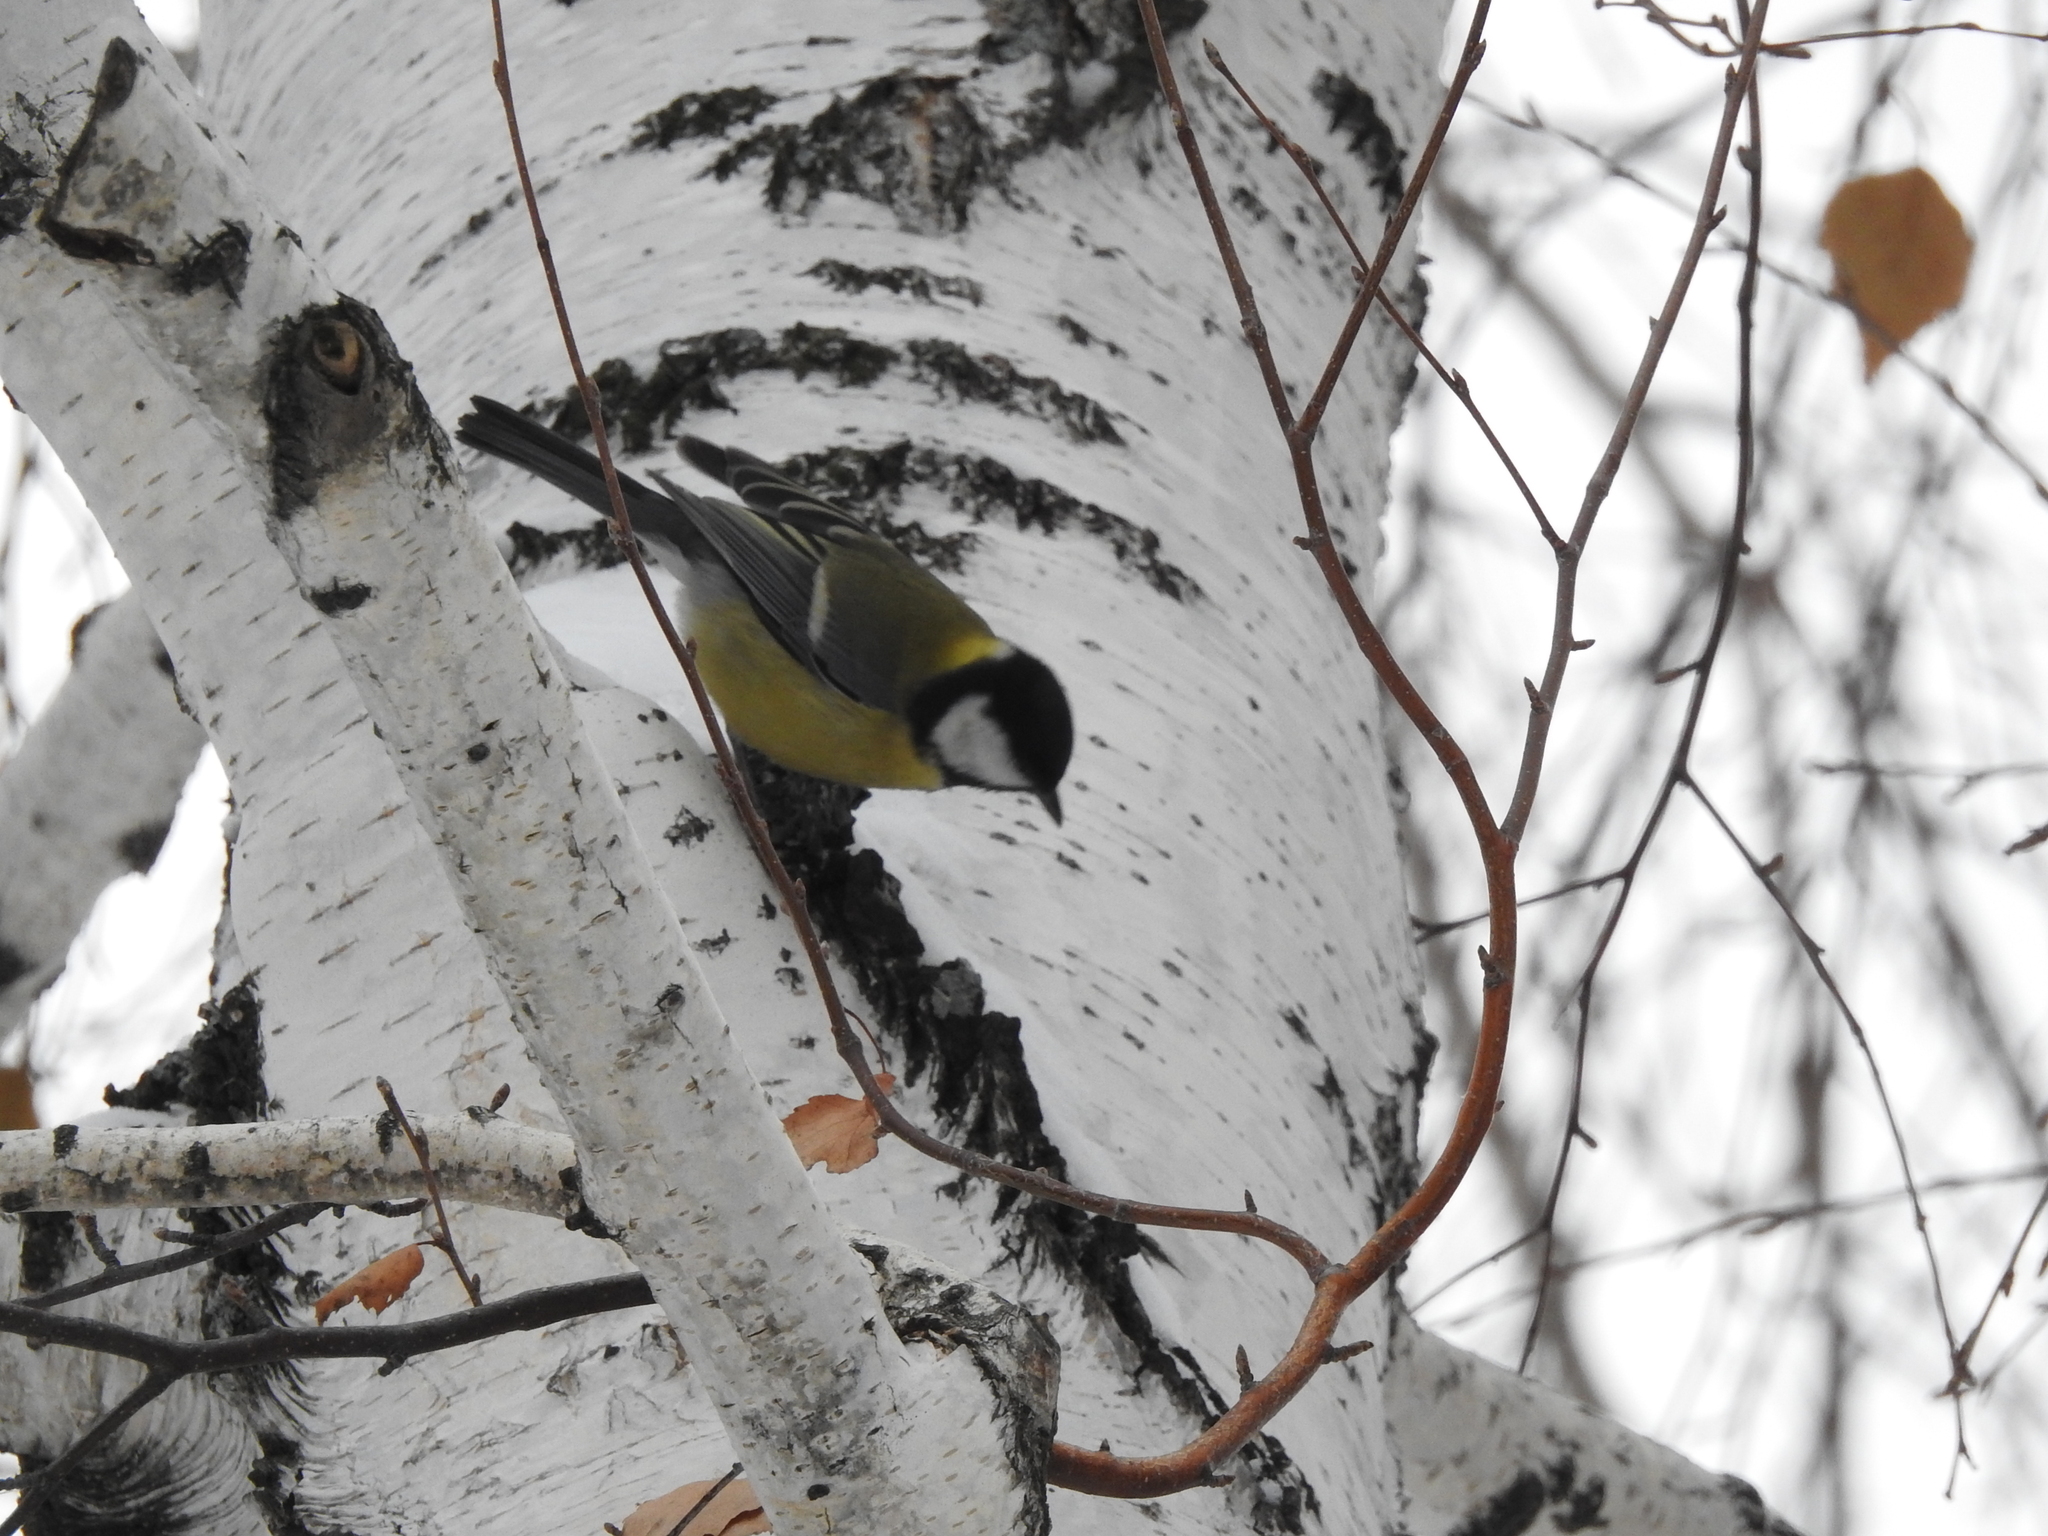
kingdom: Animalia
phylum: Chordata
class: Aves
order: Passeriformes
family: Paridae
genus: Parus
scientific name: Parus major
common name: Great tit
